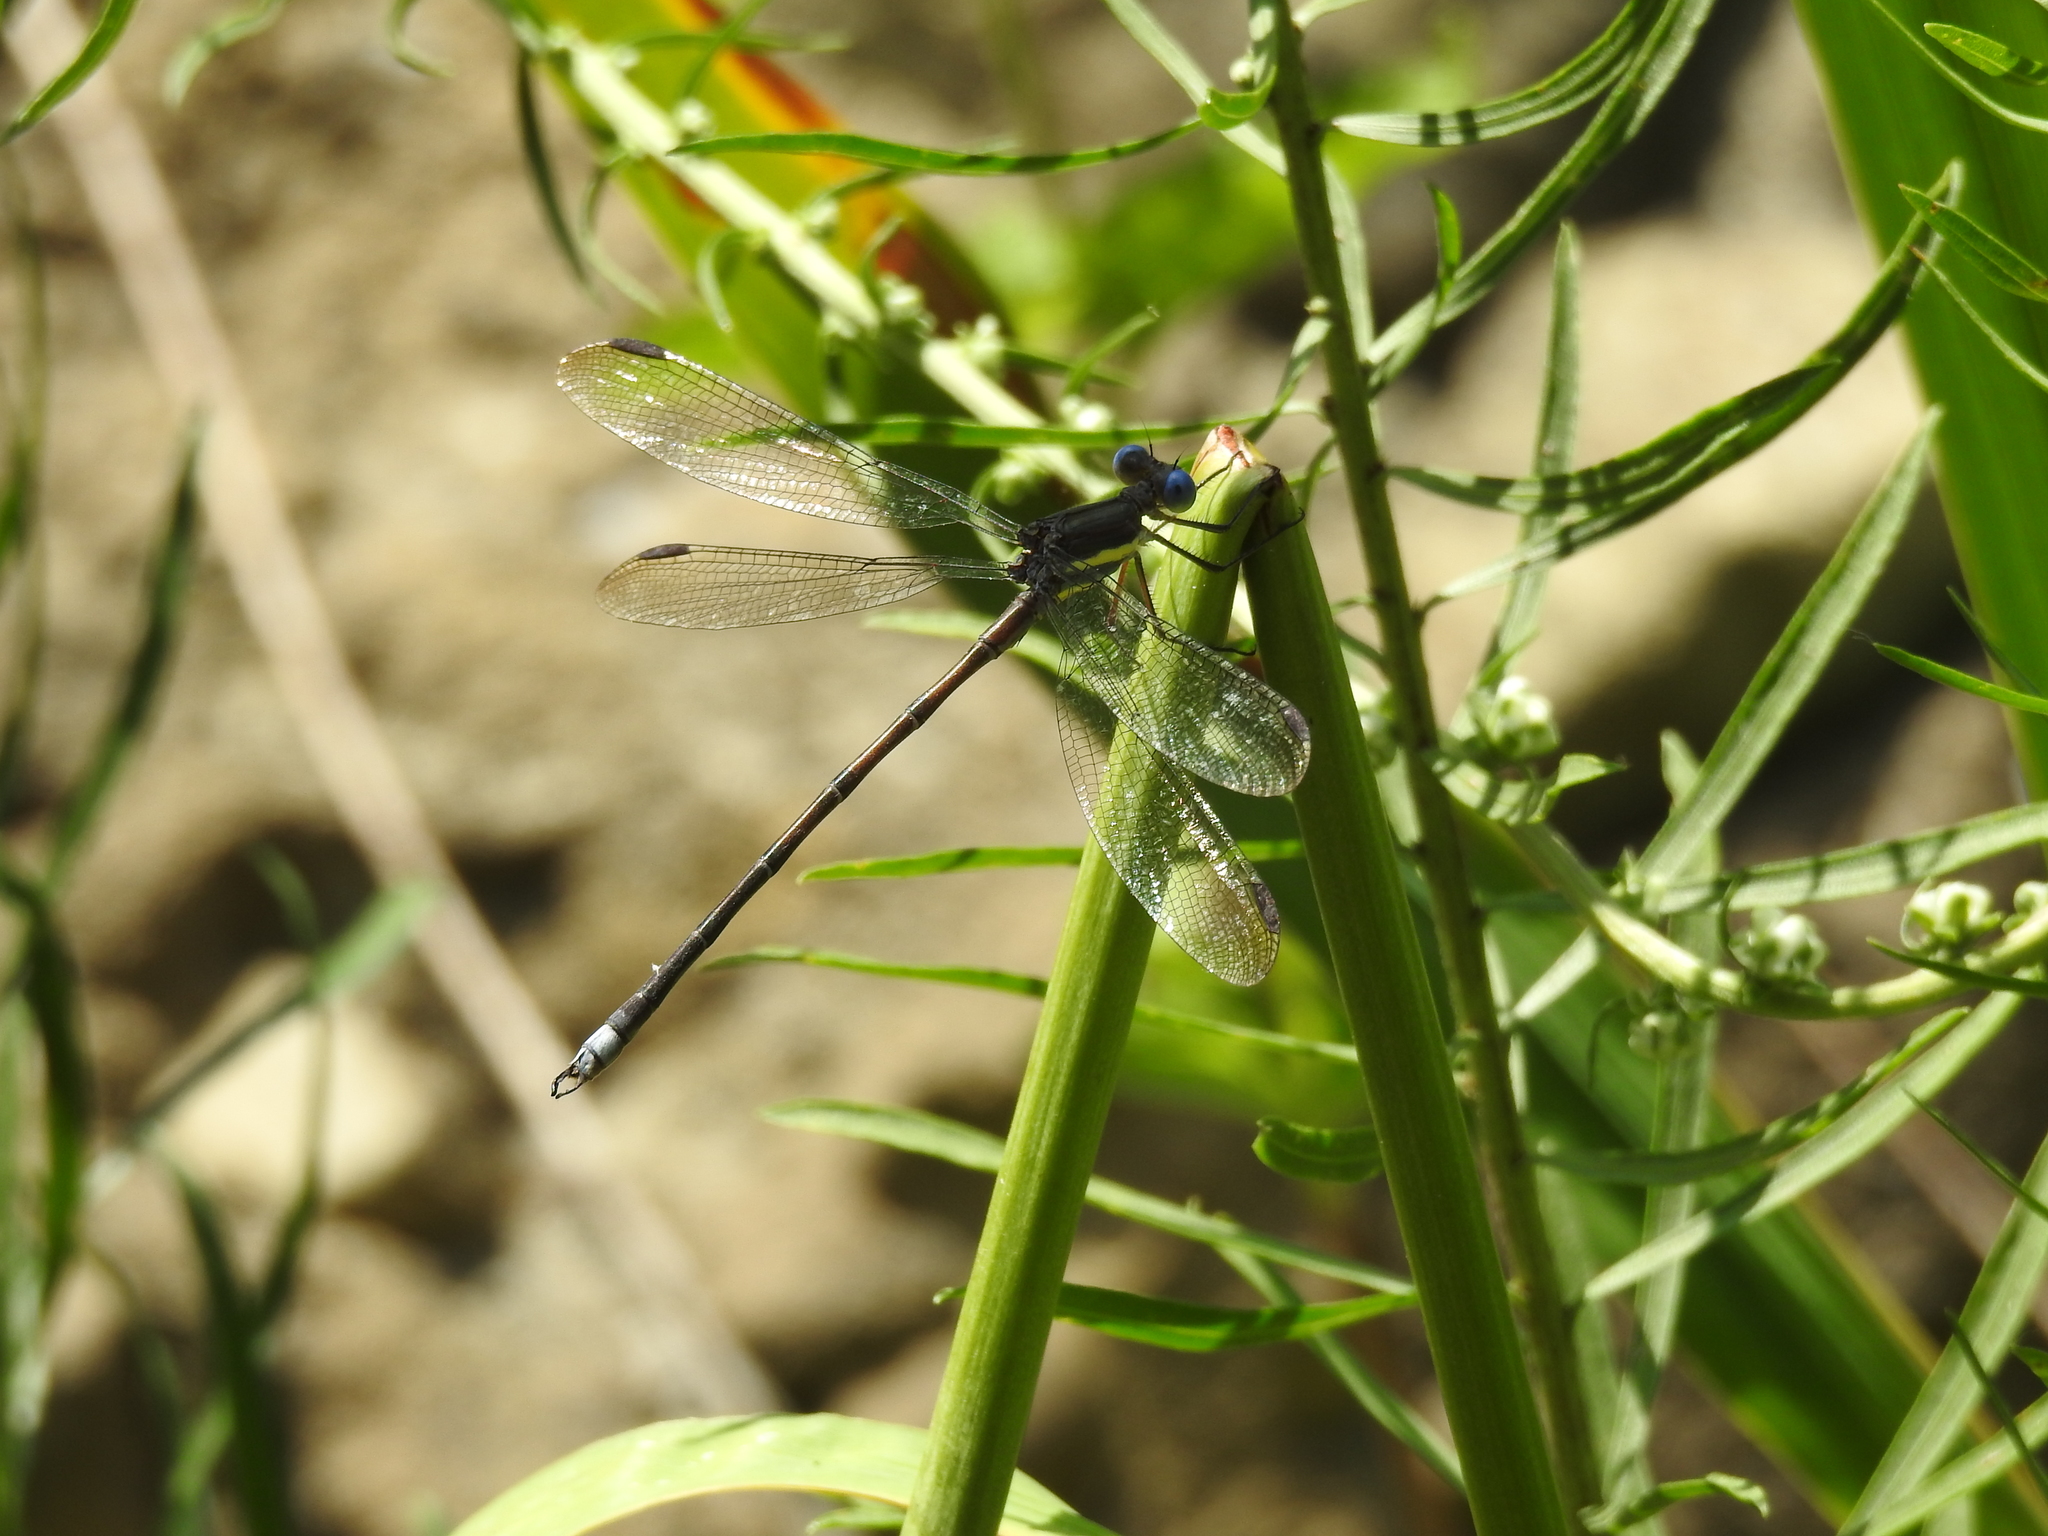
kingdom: Animalia
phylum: Arthropoda
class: Insecta
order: Odonata
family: Lestidae
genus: Archilestes
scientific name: Archilestes grandis
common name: Great spreadwing
